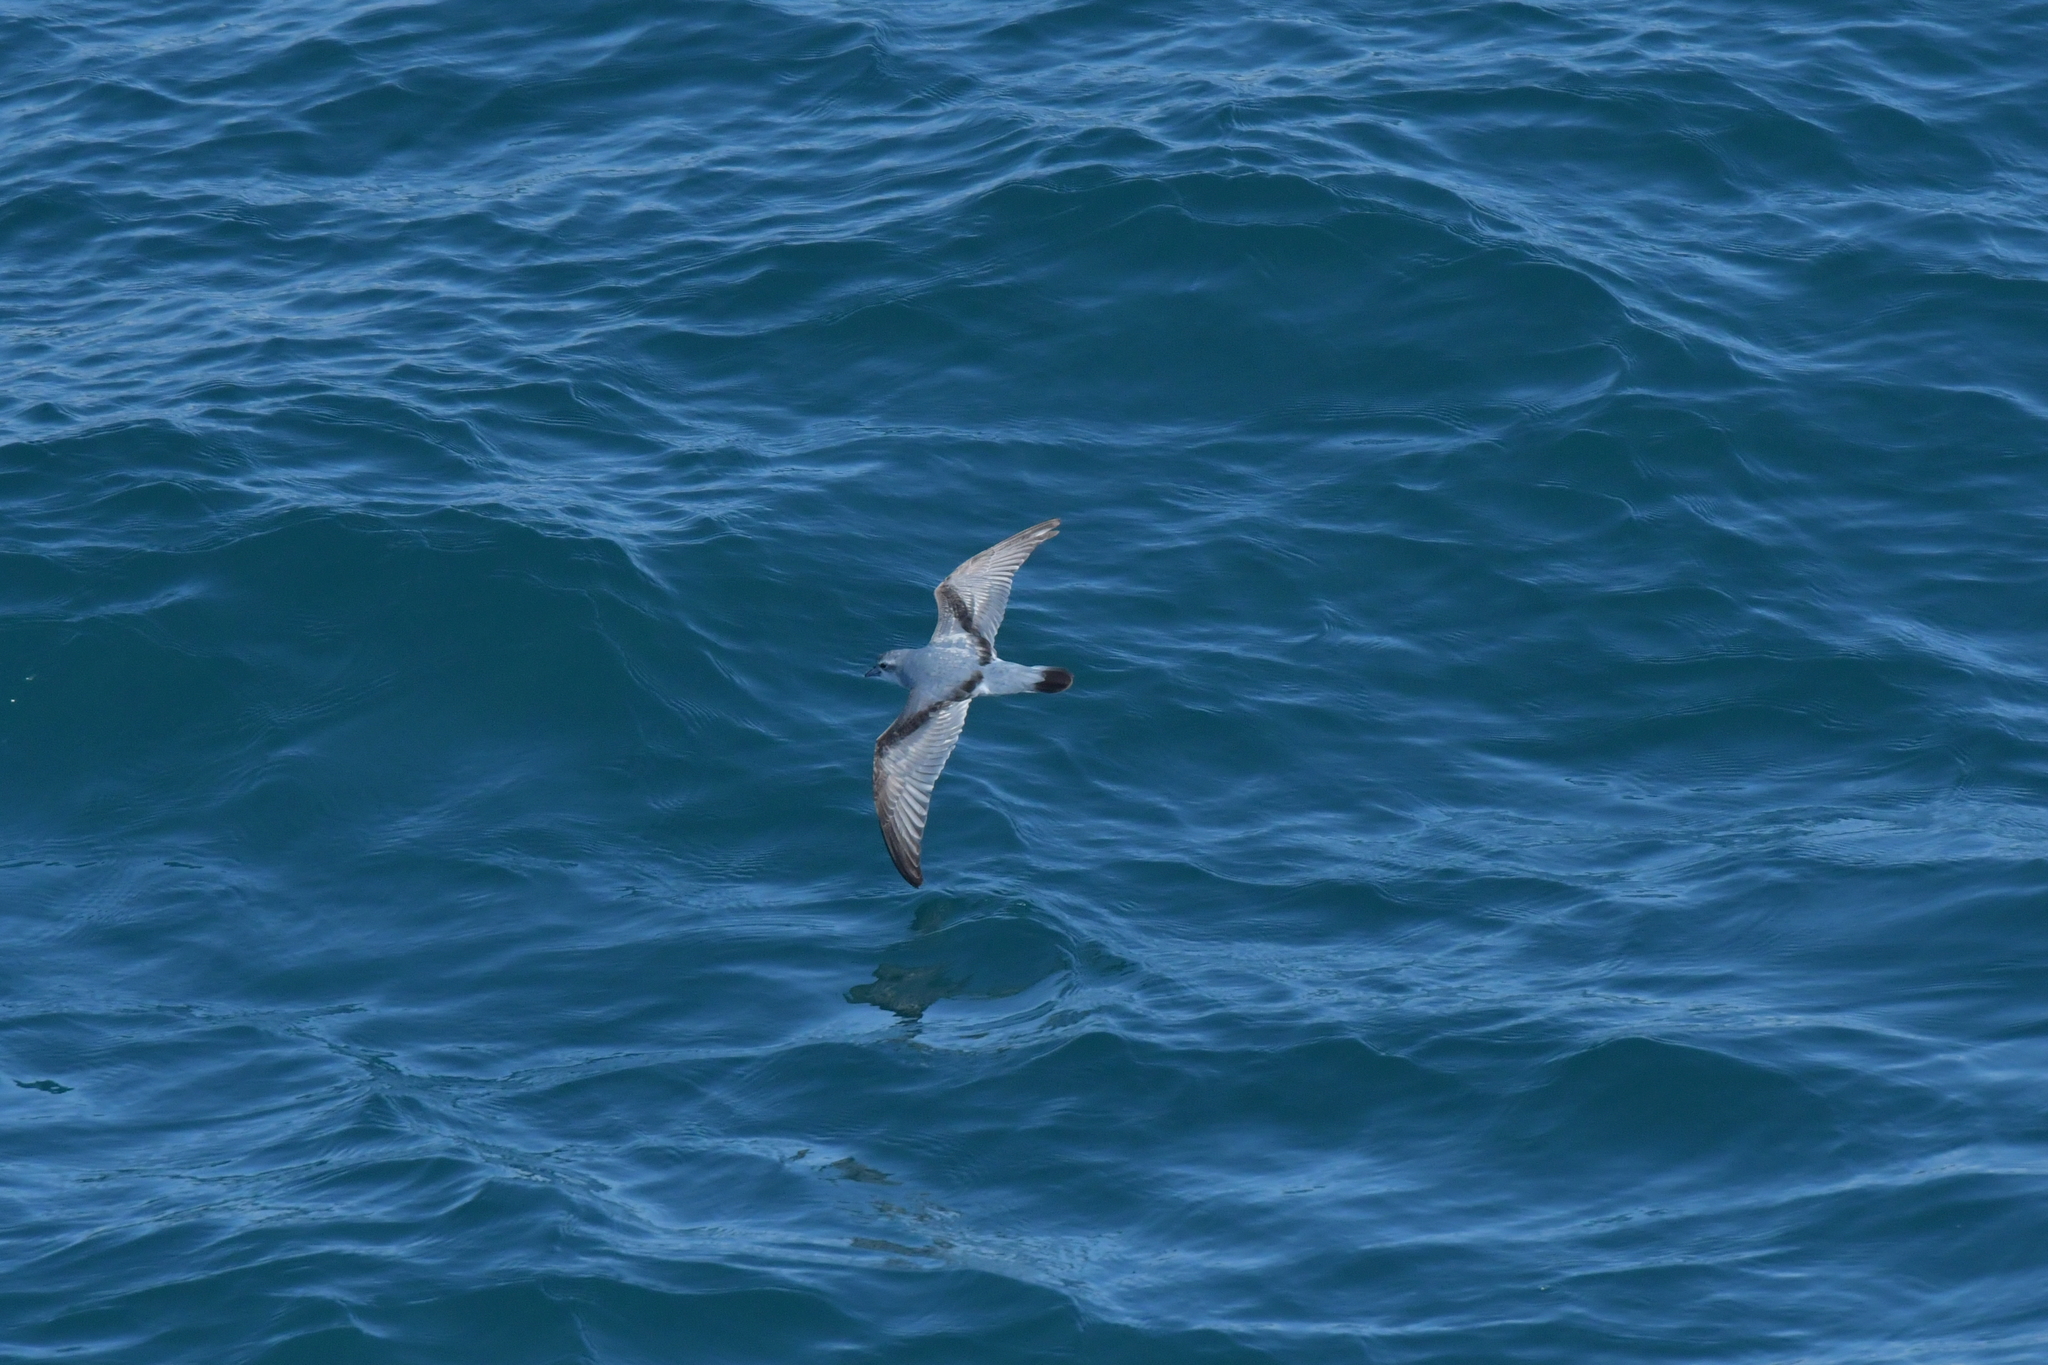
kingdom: Animalia
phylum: Chordata
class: Aves
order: Procellariiformes
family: Procellariidae
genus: Pachyptila
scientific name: Pachyptila turtur
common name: Fairy prion
